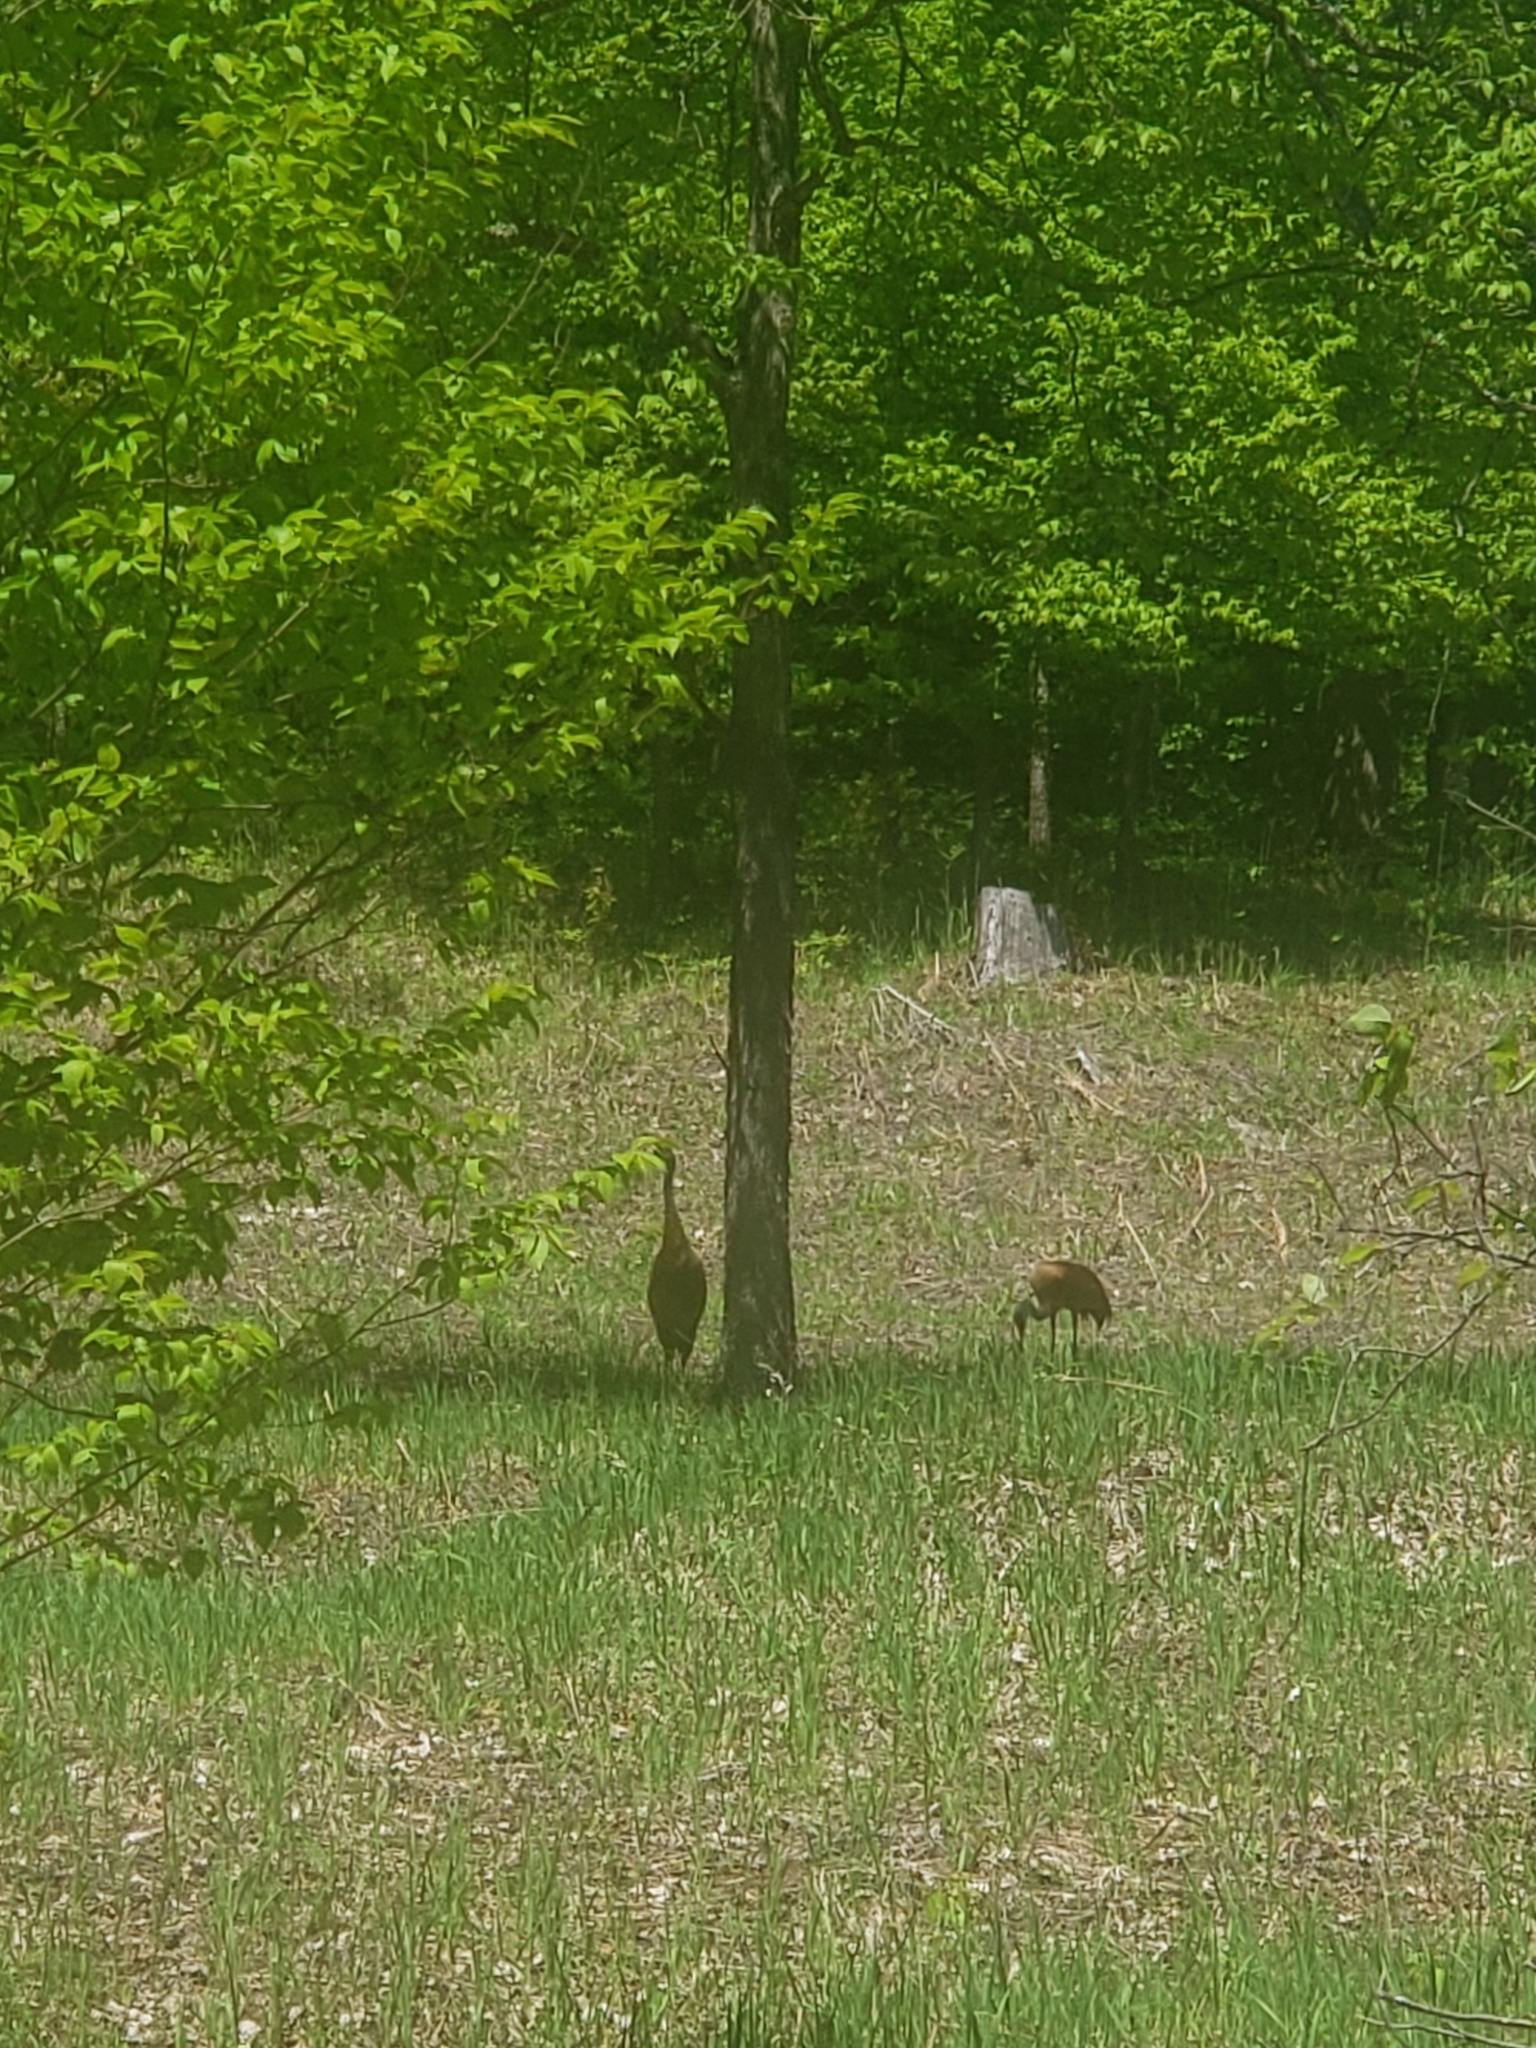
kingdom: Animalia
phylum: Chordata
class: Aves
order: Gruiformes
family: Gruidae
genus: Grus
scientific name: Grus canadensis
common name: Sandhill crane
